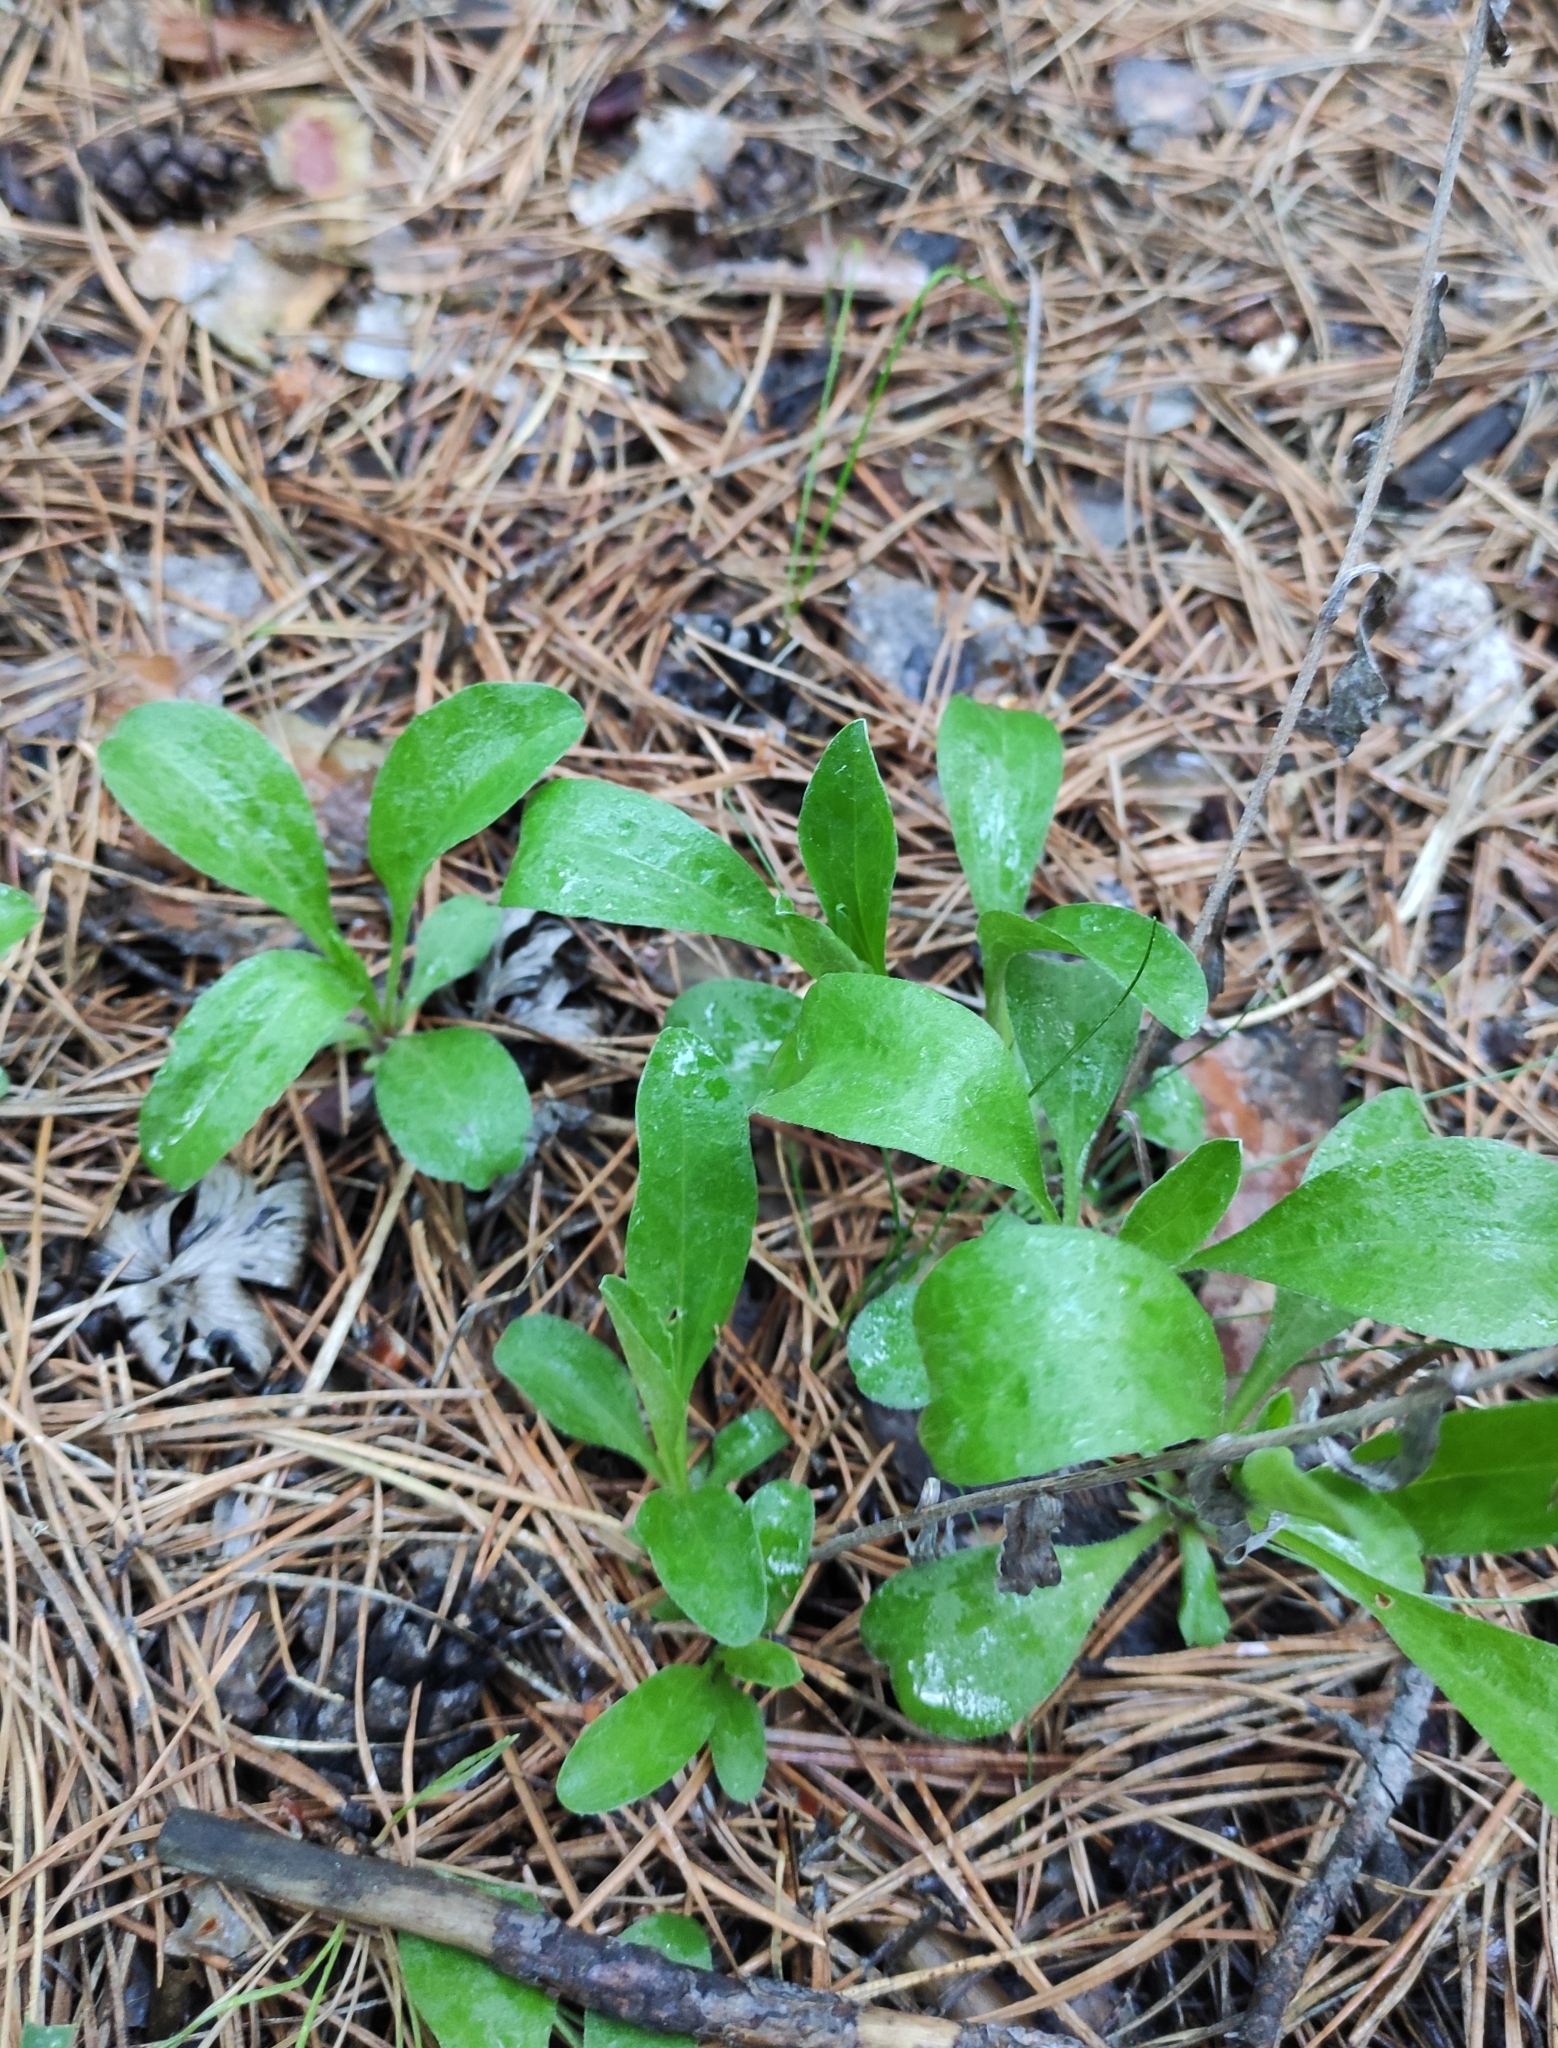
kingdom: Plantae
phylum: Tracheophyta
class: Magnoliopsida
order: Asterales
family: Asteraceae
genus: Aster
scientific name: Aster alpinus
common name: Alpine aster
